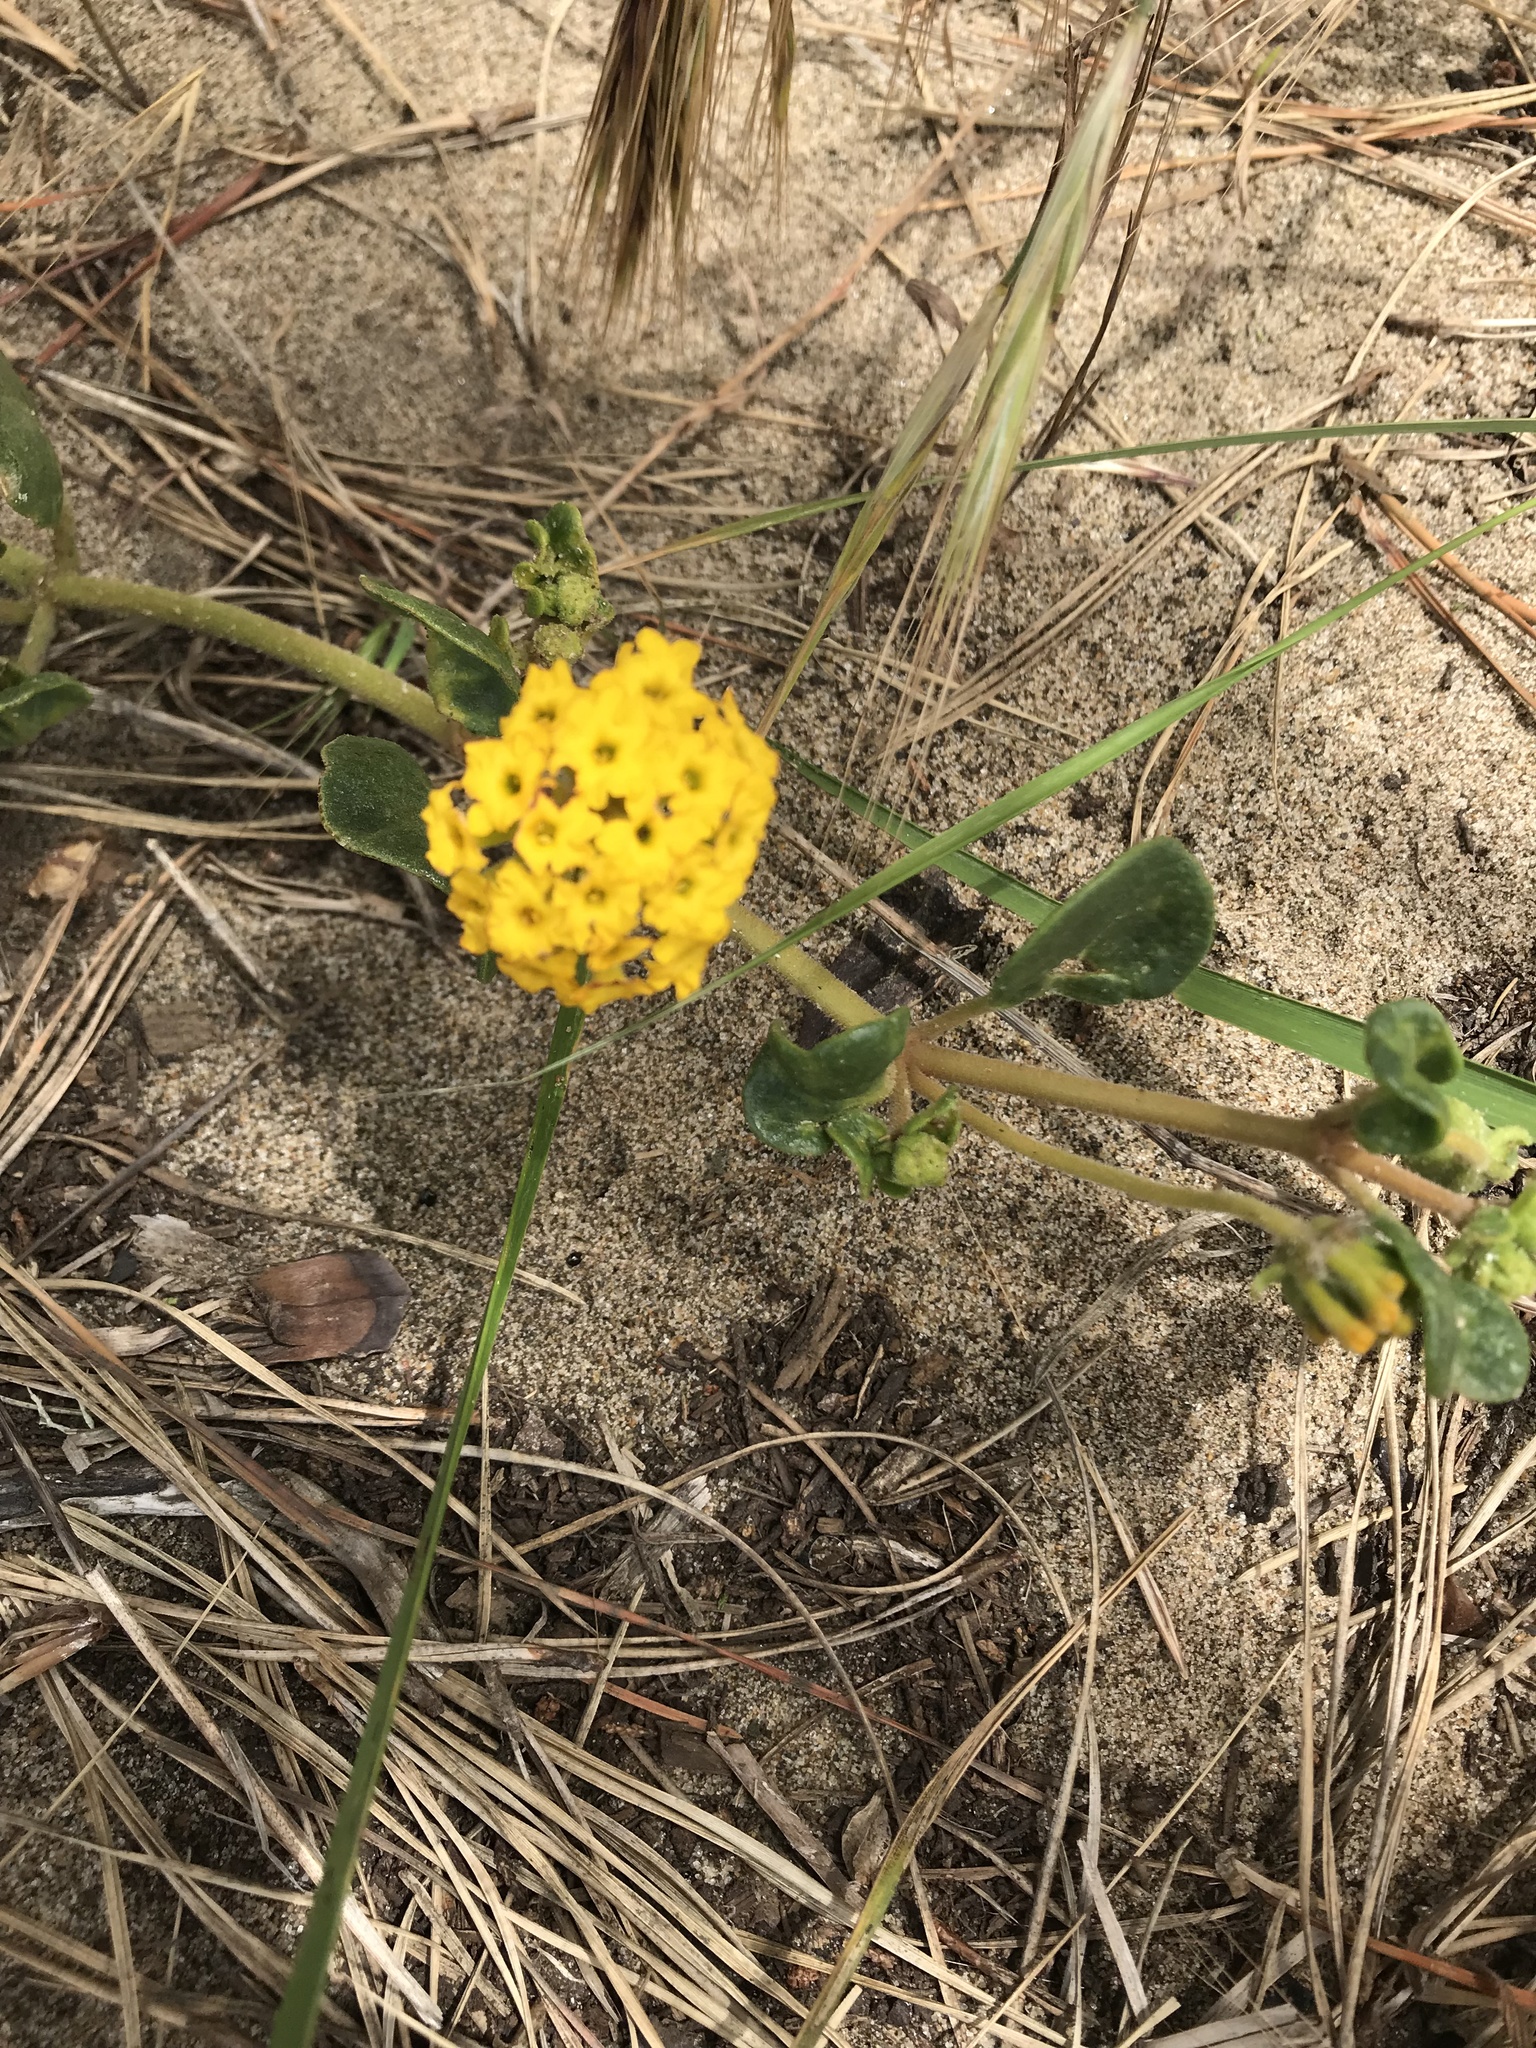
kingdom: Plantae
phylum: Tracheophyta
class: Magnoliopsida
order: Caryophyllales
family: Nyctaginaceae
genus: Abronia
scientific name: Abronia latifolia
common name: Yellow sand-verbena
